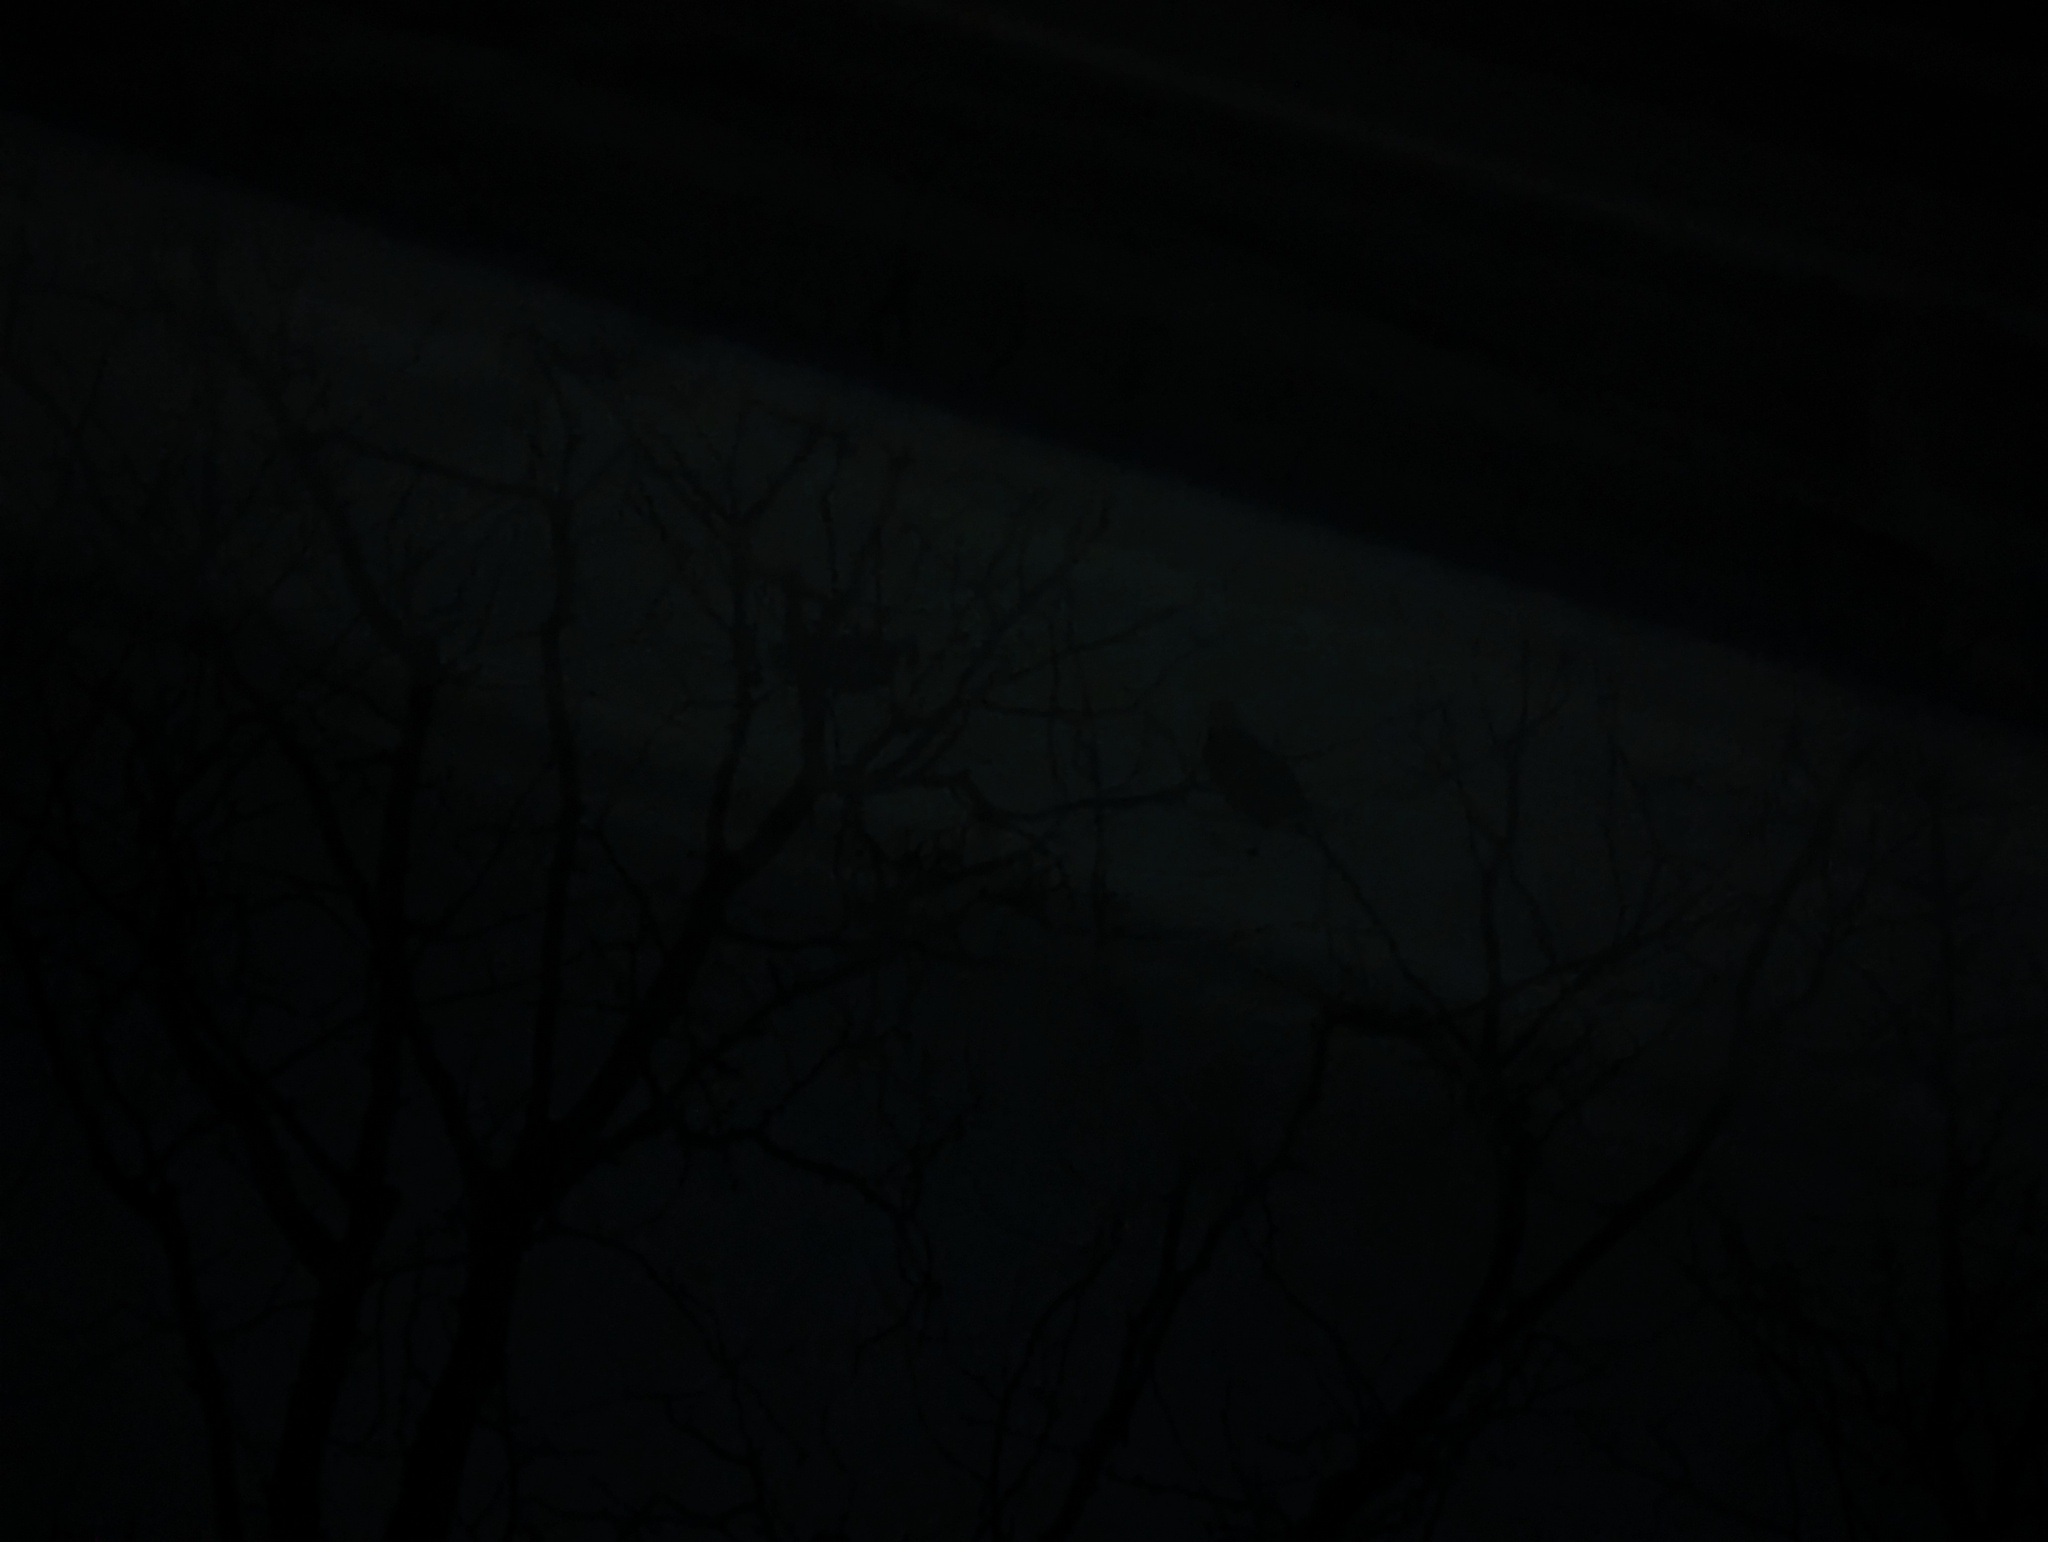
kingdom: Animalia
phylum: Chordata
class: Aves
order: Strigiformes
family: Strigidae
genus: Bubo
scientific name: Bubo virginianus
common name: Great horned owl
